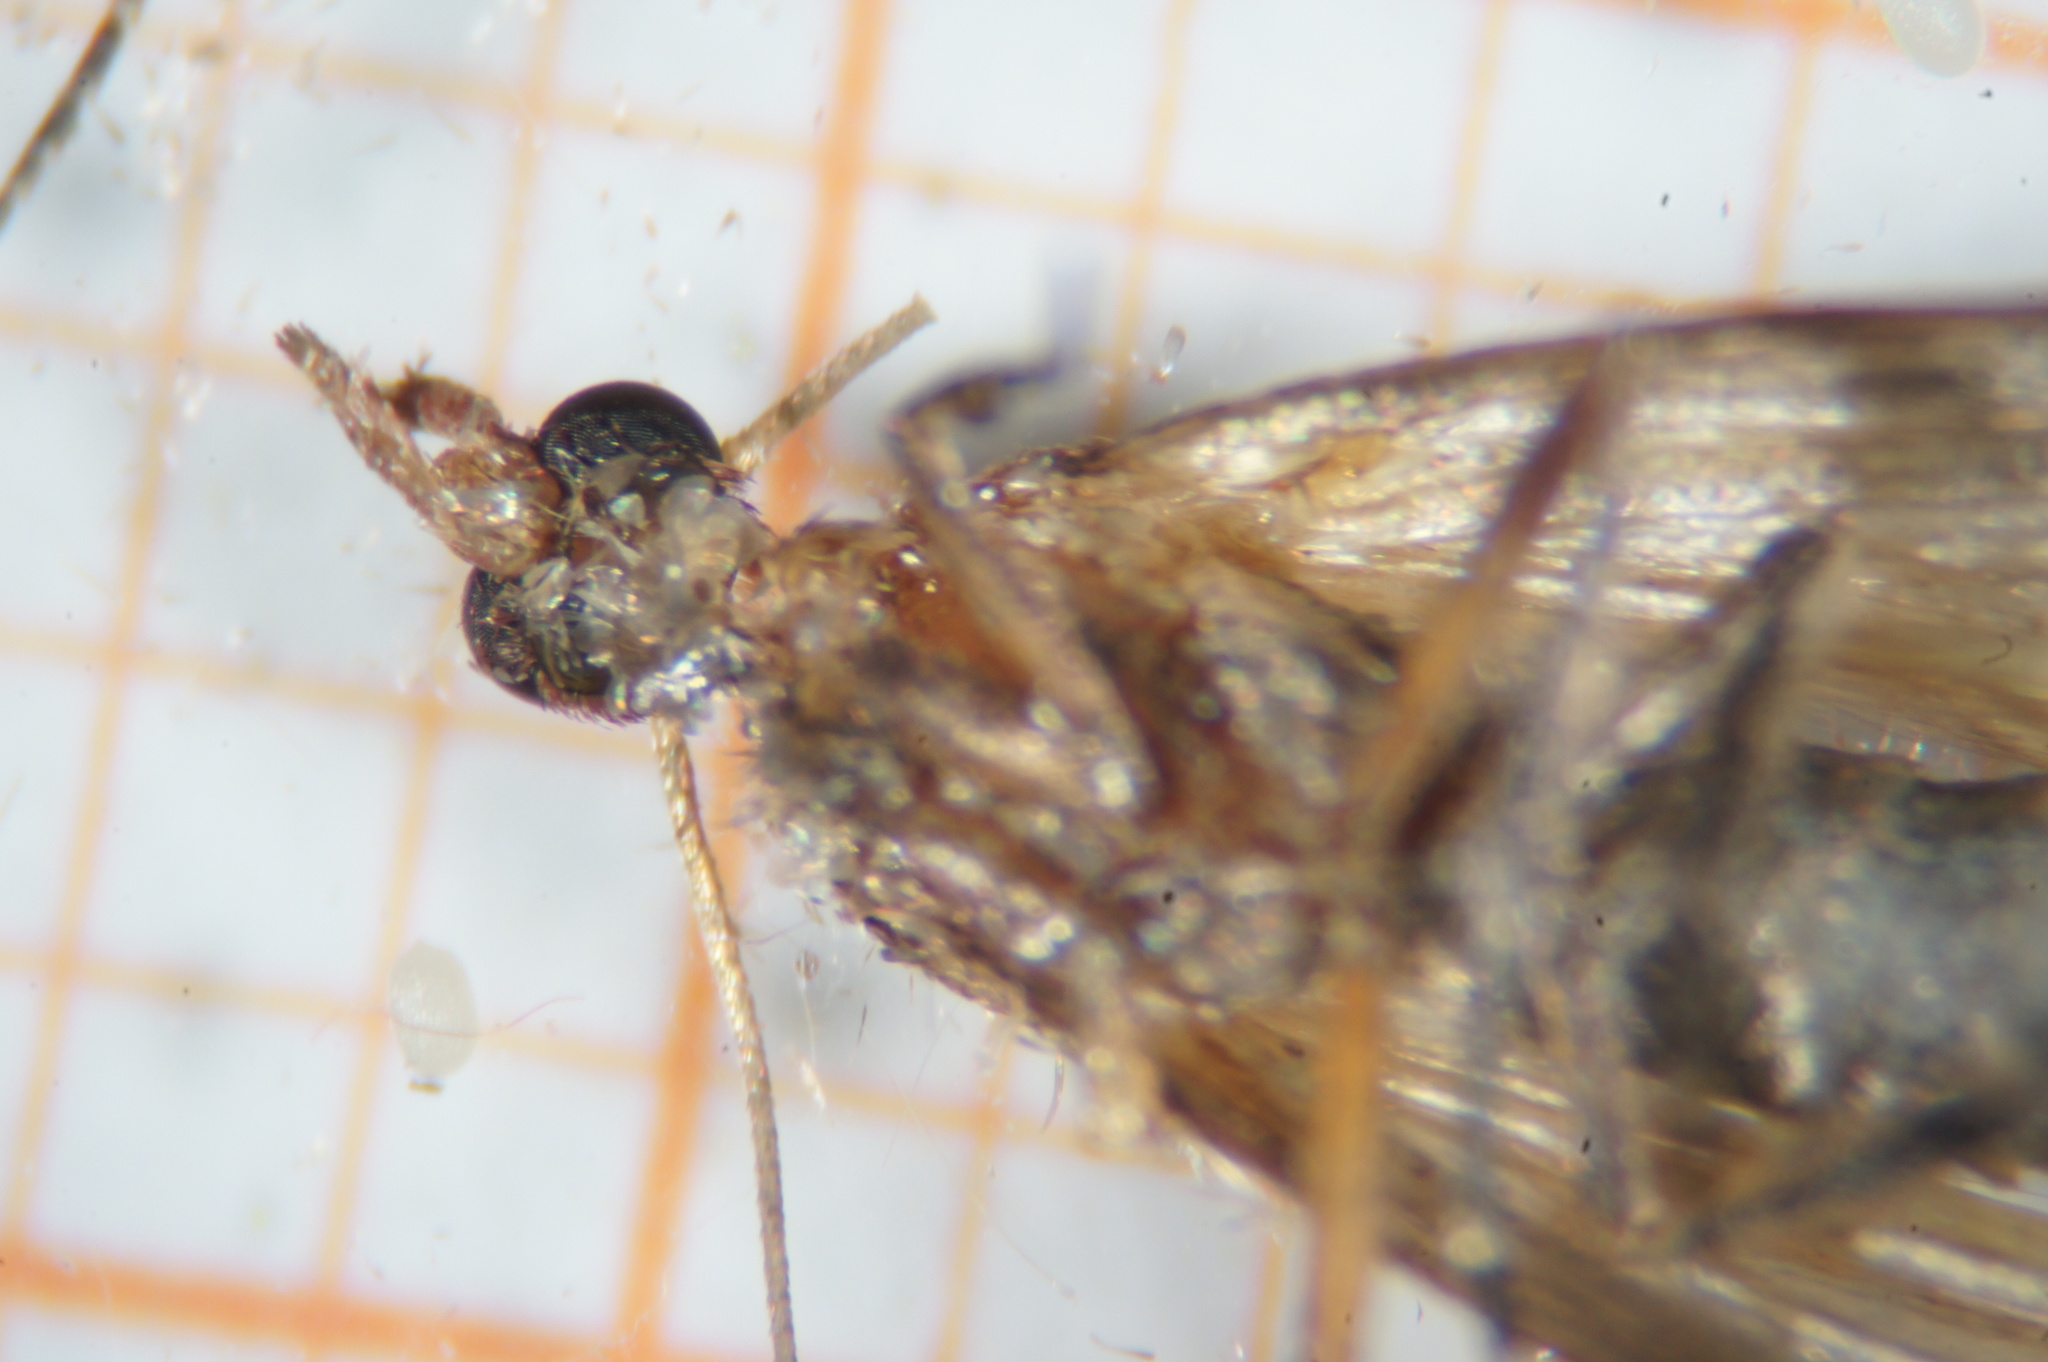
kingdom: Animalia
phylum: Arthropoda
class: Insecta
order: Lepidoptera
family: Pyralidae
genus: Plodia
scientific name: Plodia interpunctella
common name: Indian meal moth
